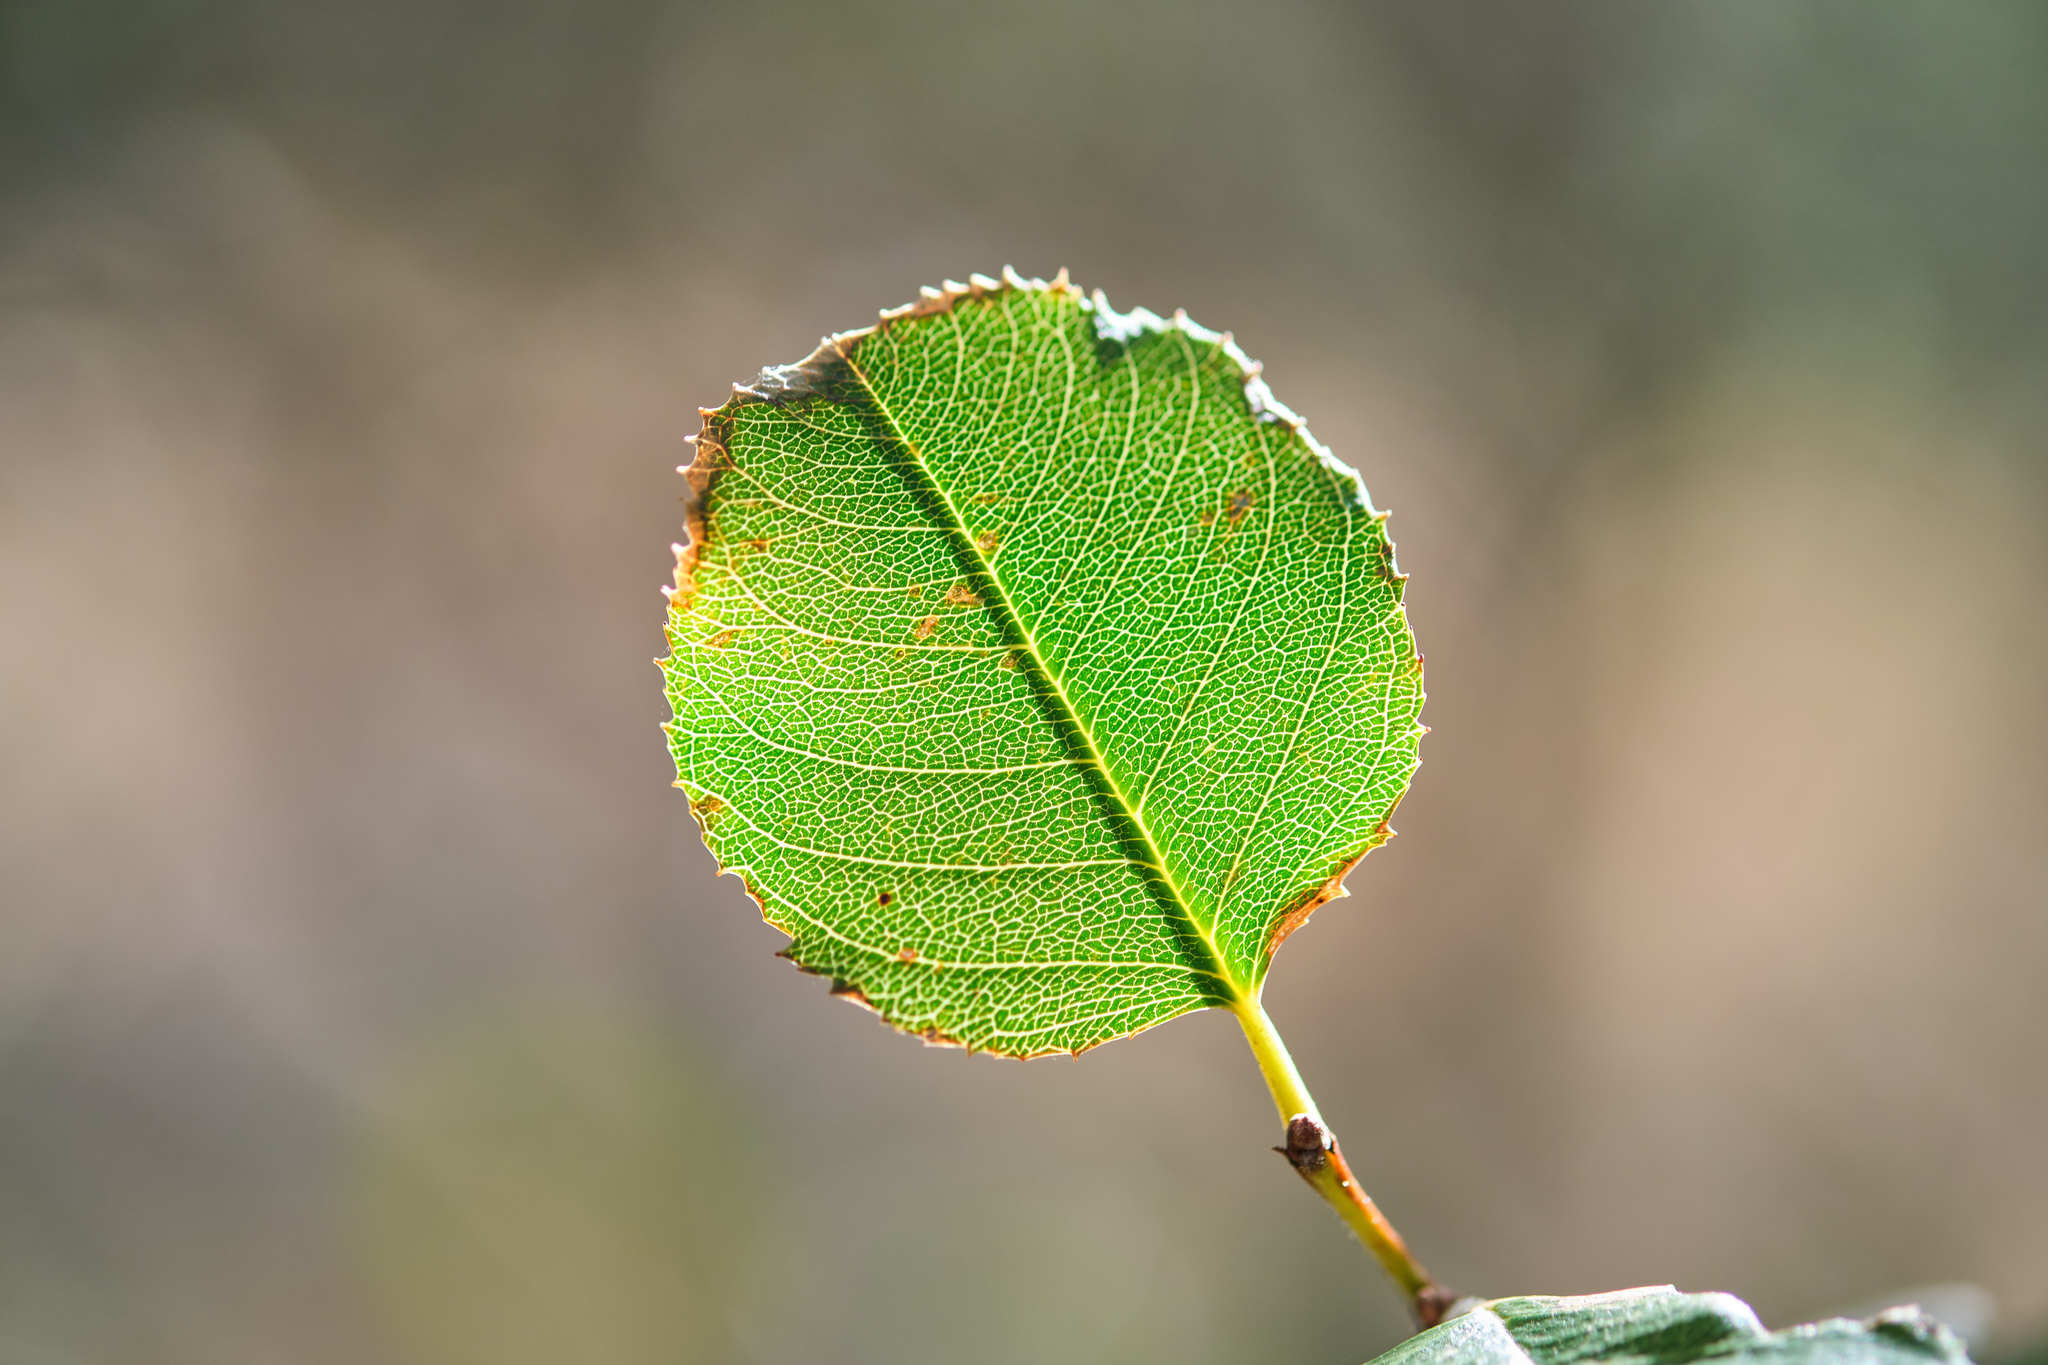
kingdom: Plantae
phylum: Tracheophyta
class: Magnoliopsida
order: Rosales
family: Rhamnaceae
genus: Endotropis
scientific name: Endotropis crocea
